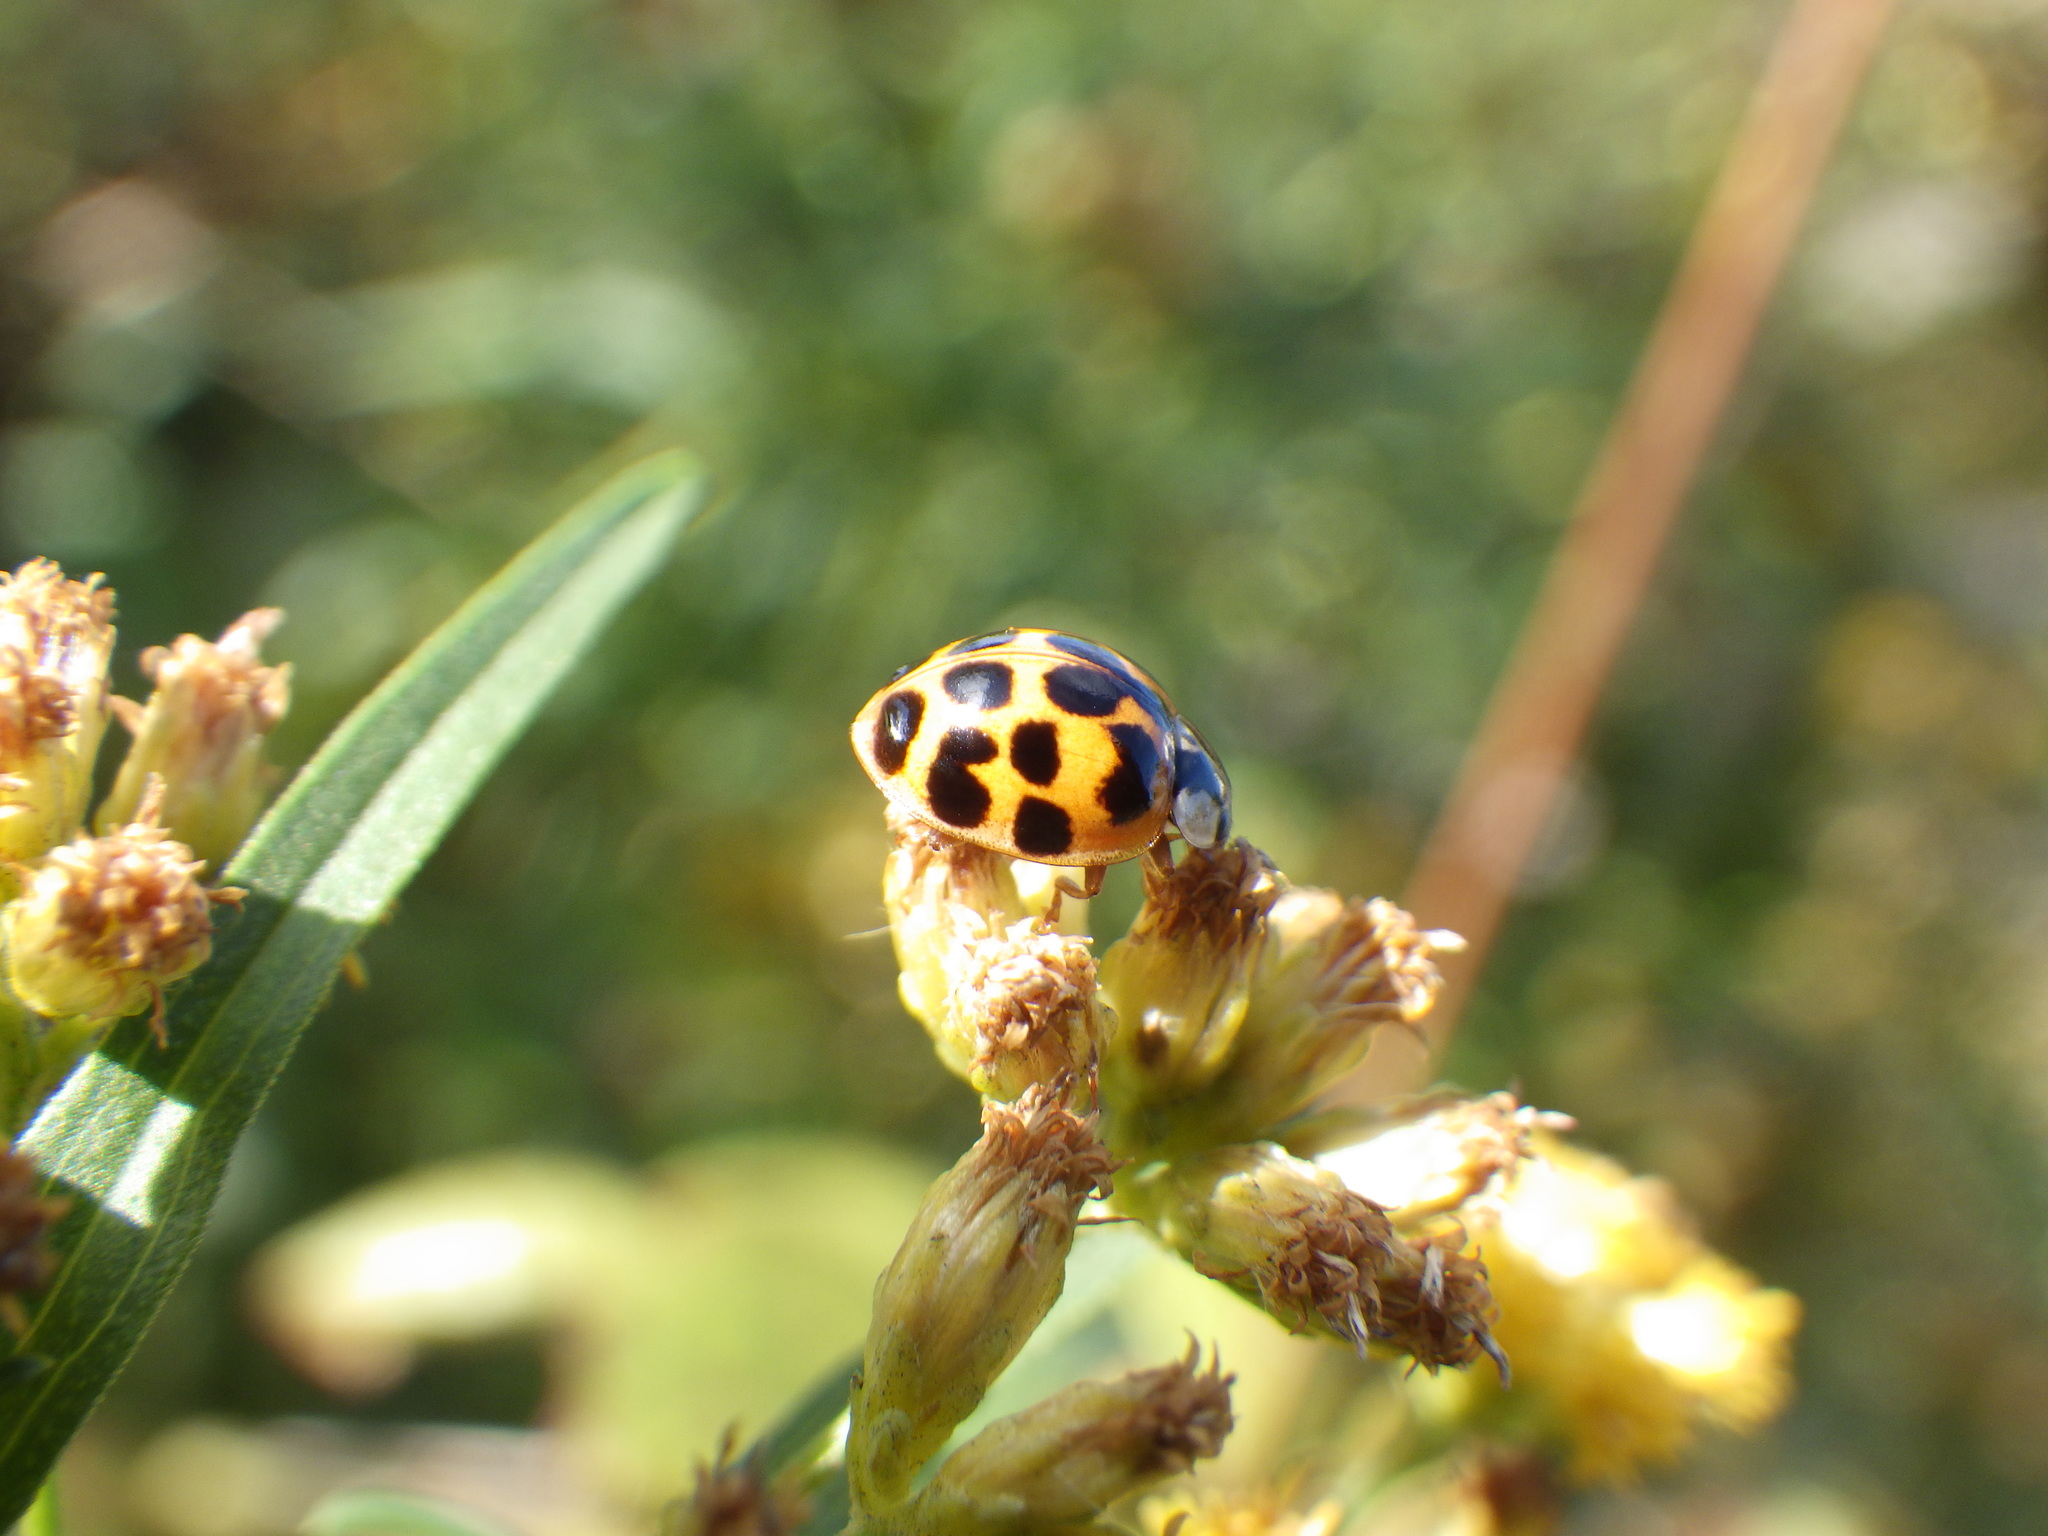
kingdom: Animalia
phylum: Arthropoda
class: Insecta
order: Coleoptera
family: Coccinellidae
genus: Harmonia
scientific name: Harmonia axyridis
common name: Harlequin ladybird
